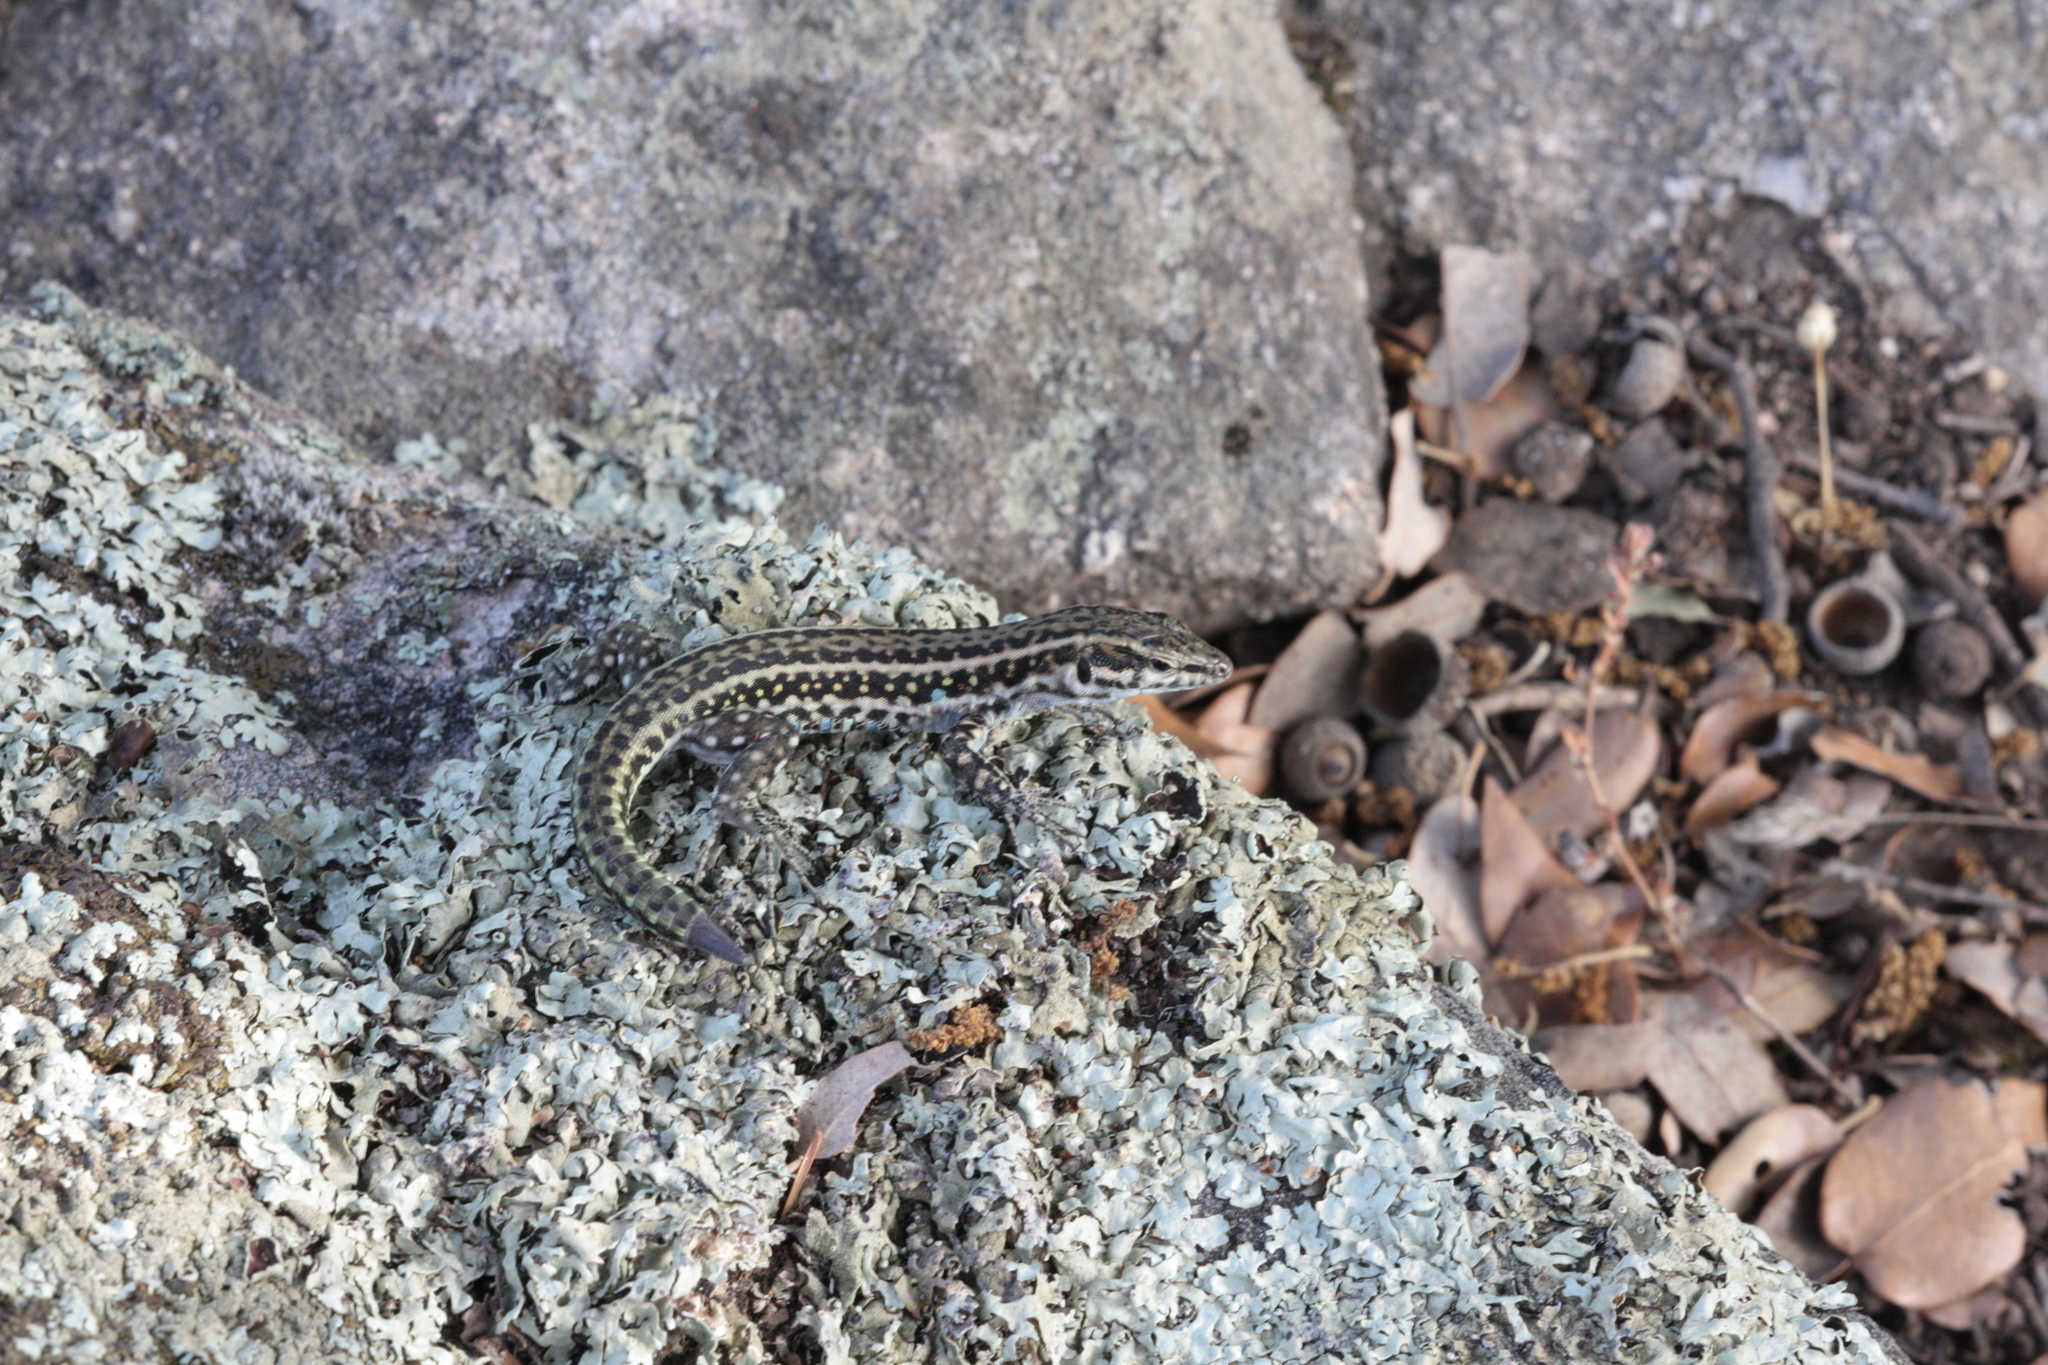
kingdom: Animalia
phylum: Chordata
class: Squamata
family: Lacertidae
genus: Podarcis
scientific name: Podarcis tiliguerta
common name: Tyrrhenian wall lizard
